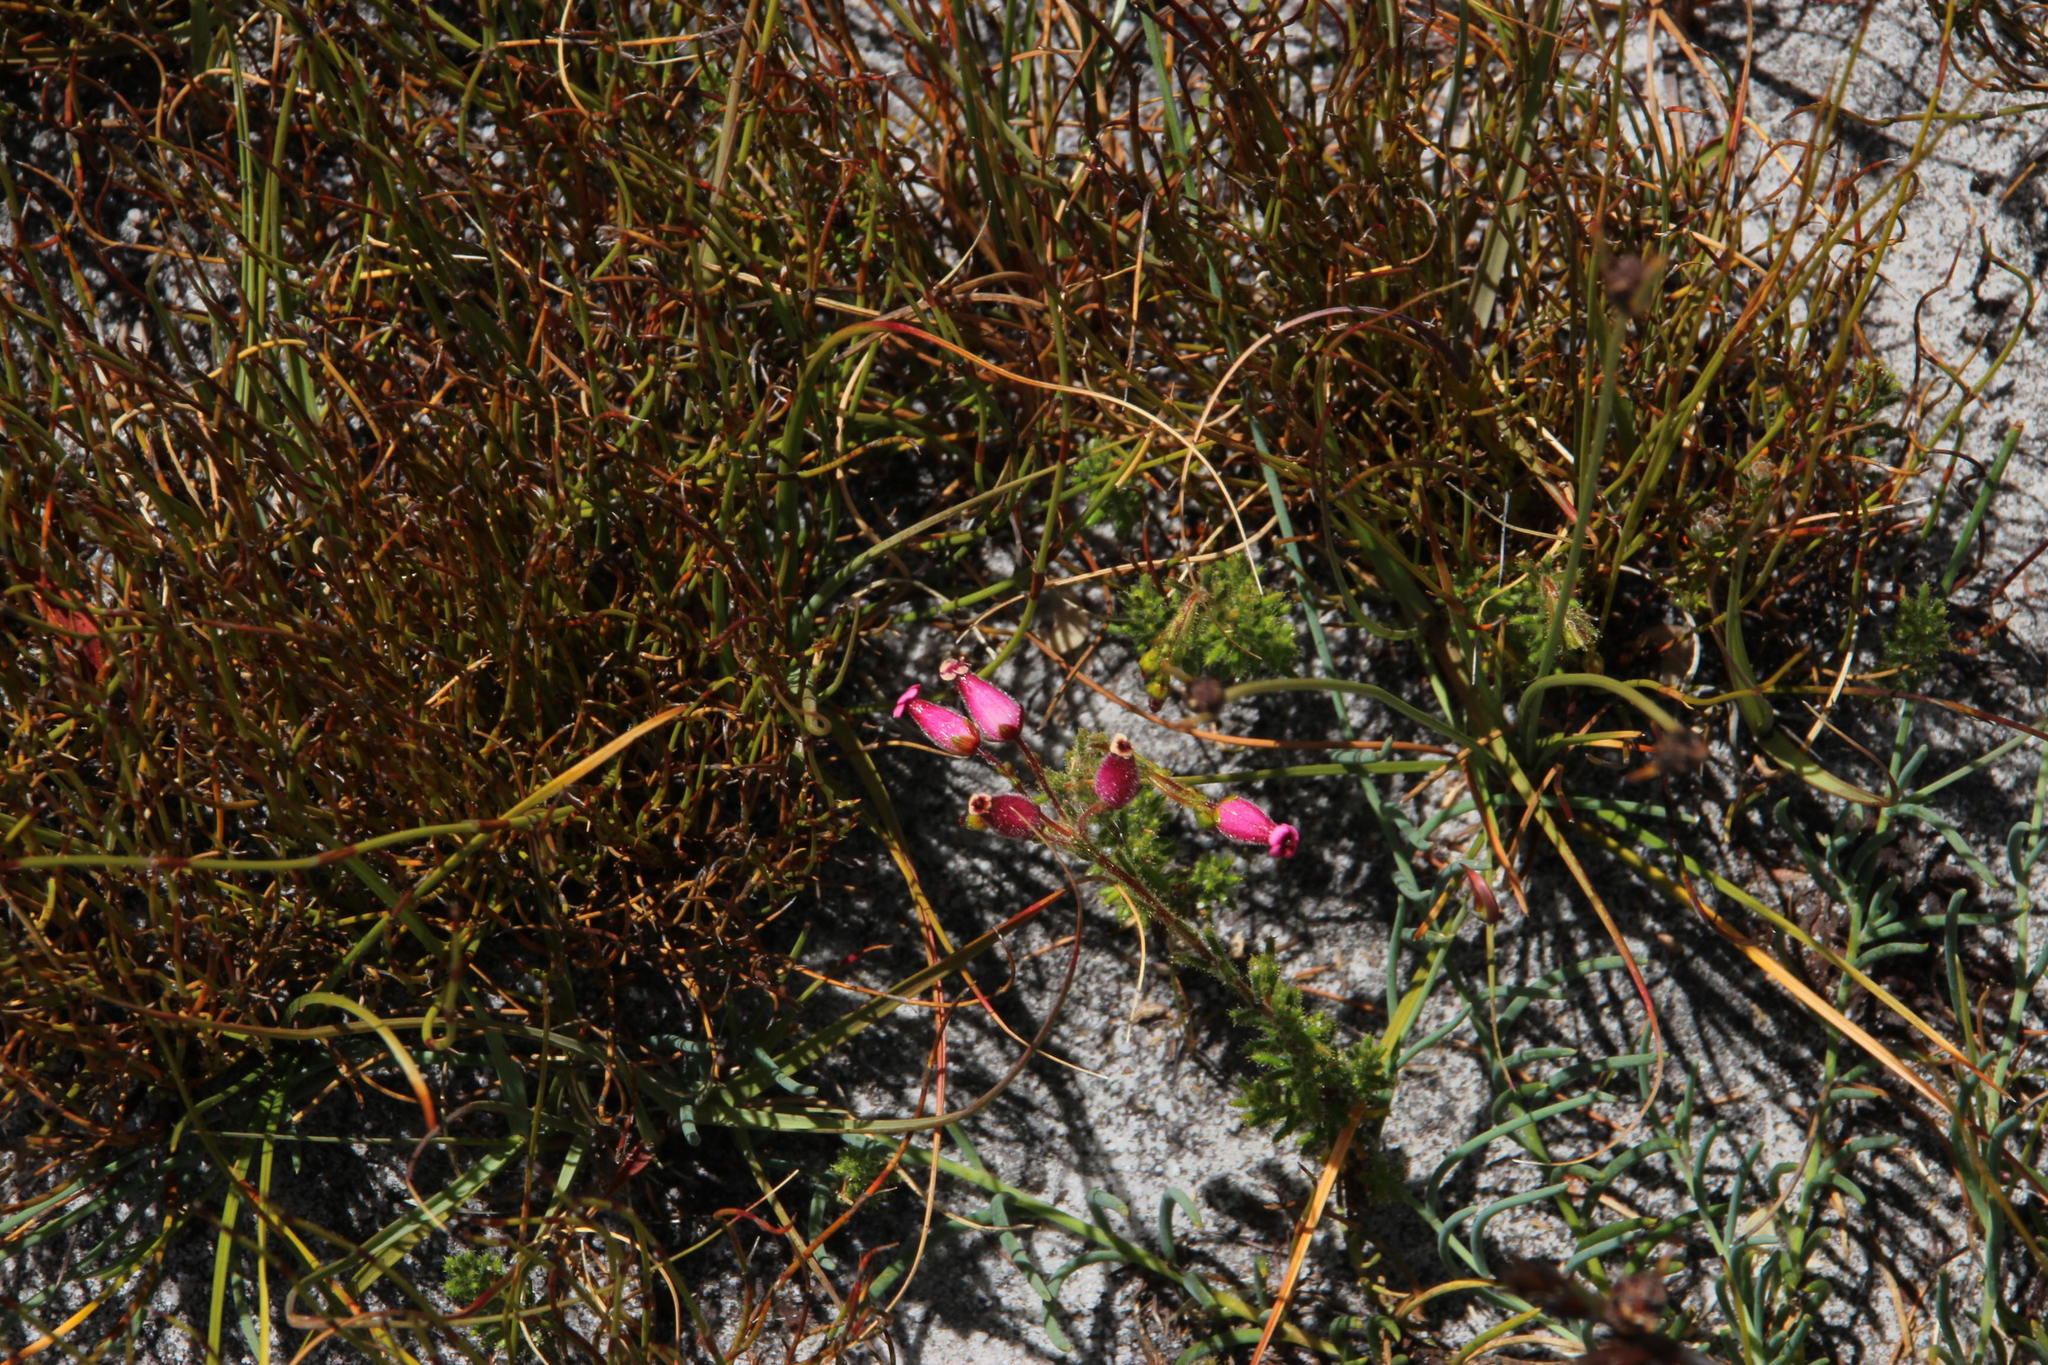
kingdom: Plantae
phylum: Tracheophyta
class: Magnoliopsida
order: Ericales
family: Ericaceae
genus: Erica
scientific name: Erica glutinosa
